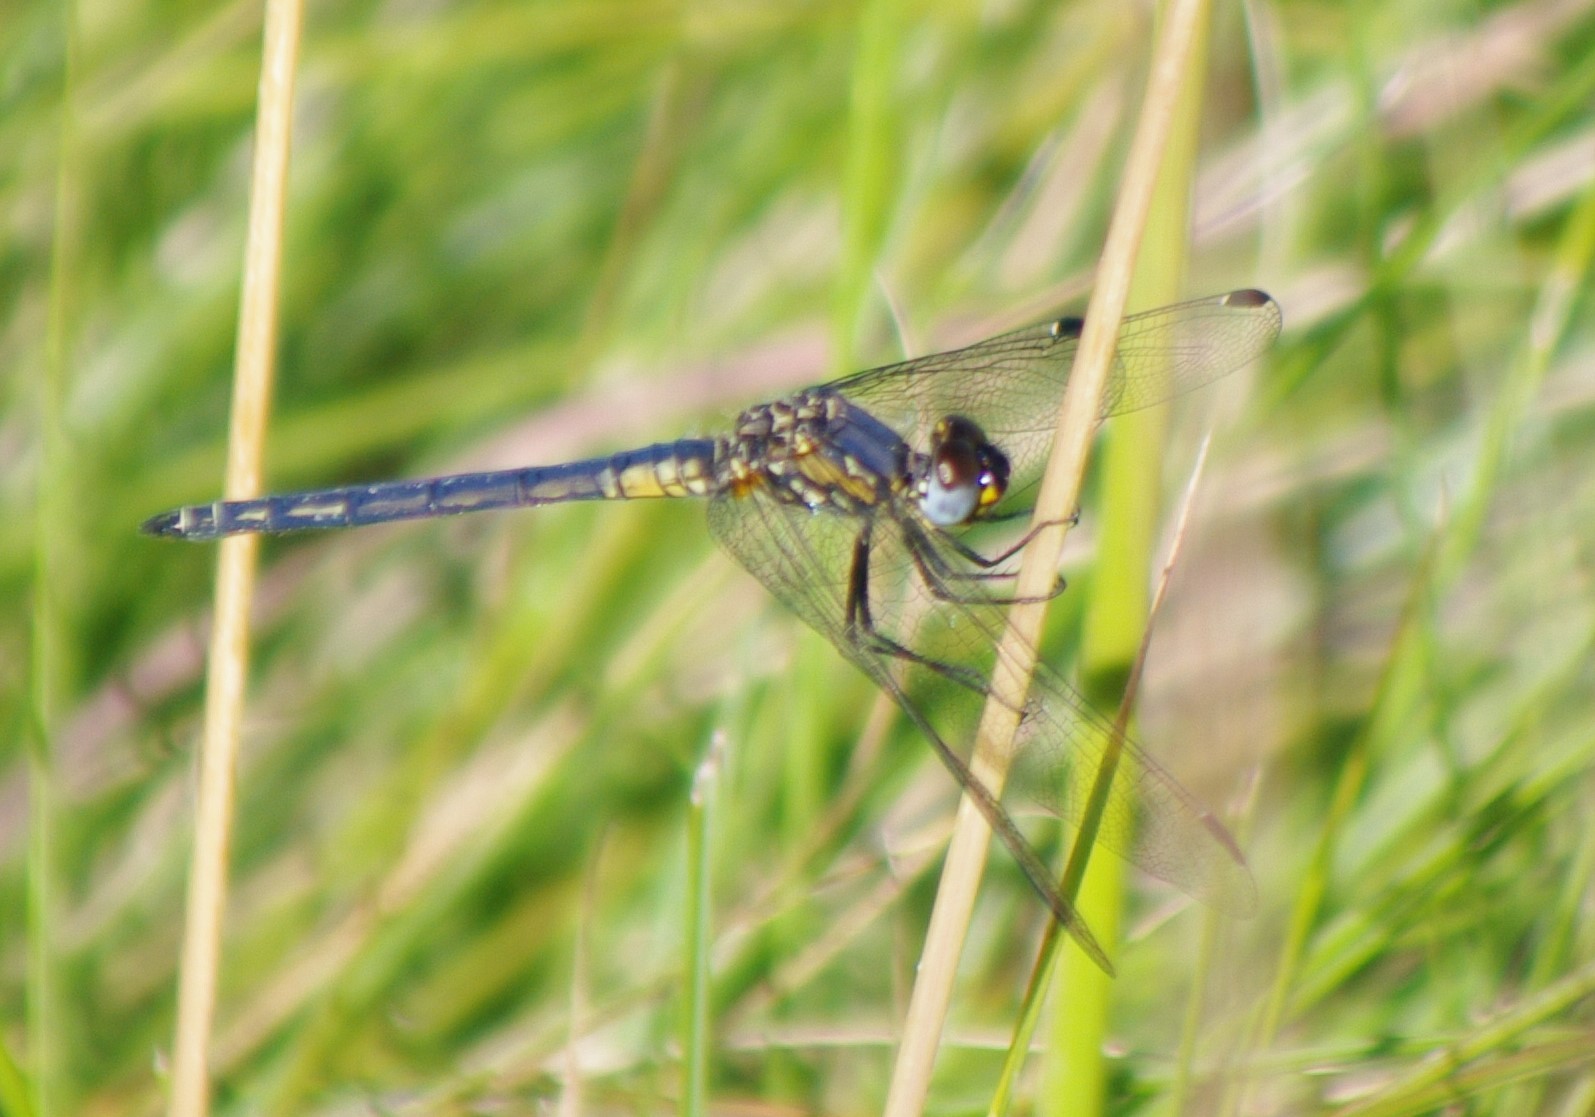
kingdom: Animalia
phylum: Arthropoda
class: Insecta
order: Odonata
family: Libellulidae
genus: Trithemis
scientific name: Trithemis furva
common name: Dark dropwing
